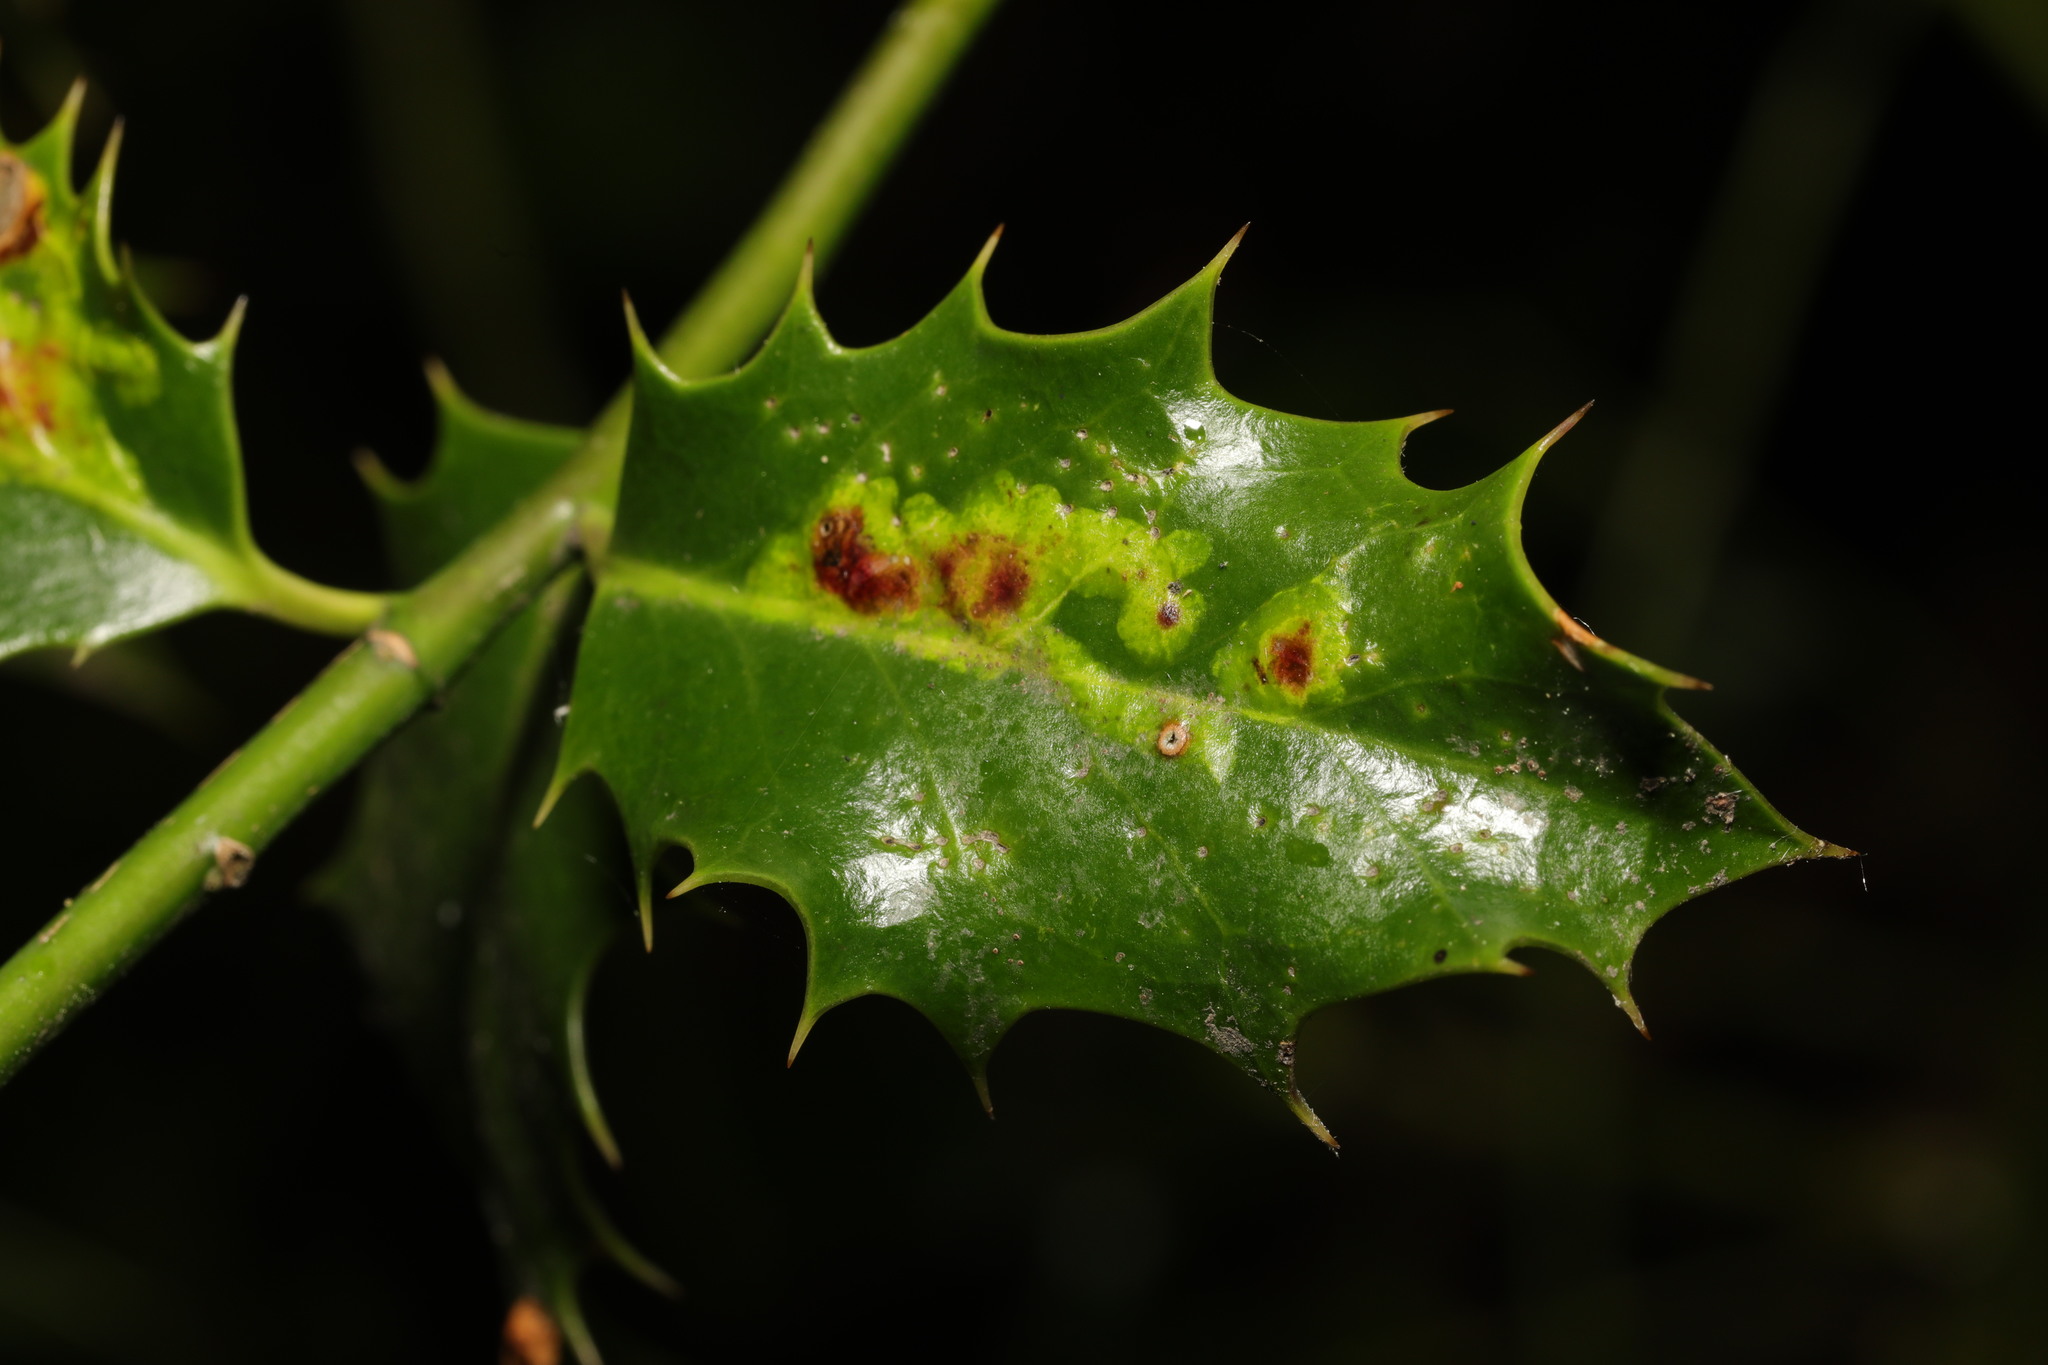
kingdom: Animalia
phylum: Arthropoda
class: Insecta
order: Diptera
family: Agromyzidae
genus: Phytomyza
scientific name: Phytomyza ilicis
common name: Holly leafminer
